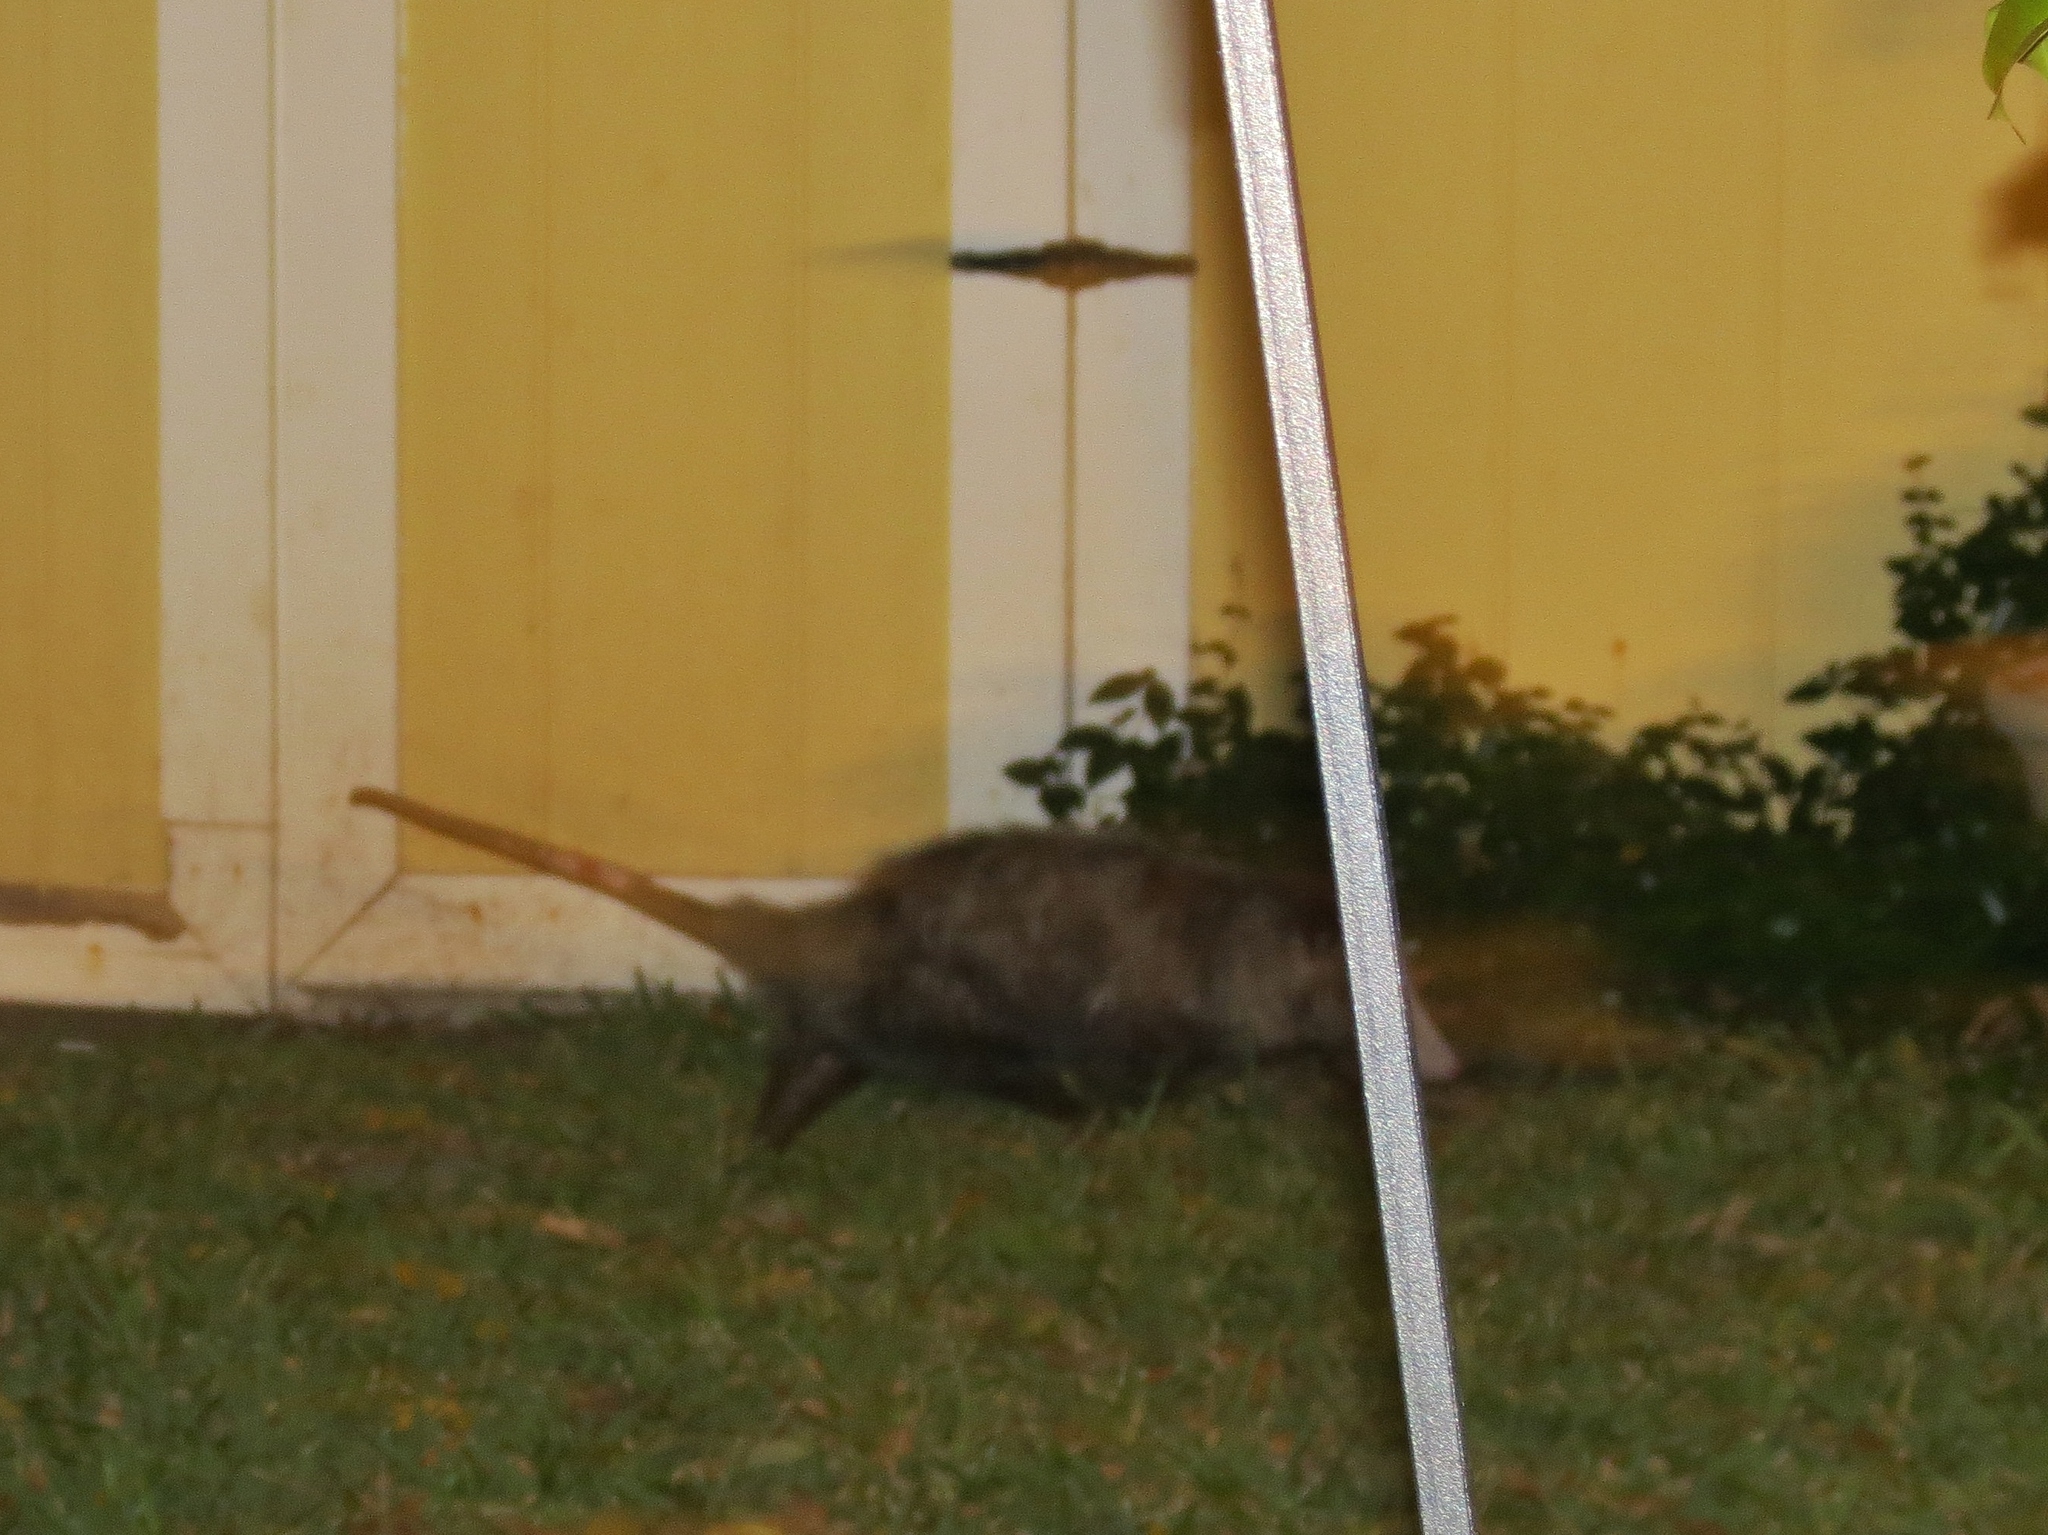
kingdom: Animalia
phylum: Chordata
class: Mammalia
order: Didelphimorphia
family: Didelphidae
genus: Didelphis
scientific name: Didelphis virginiana
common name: Virginia opossum
